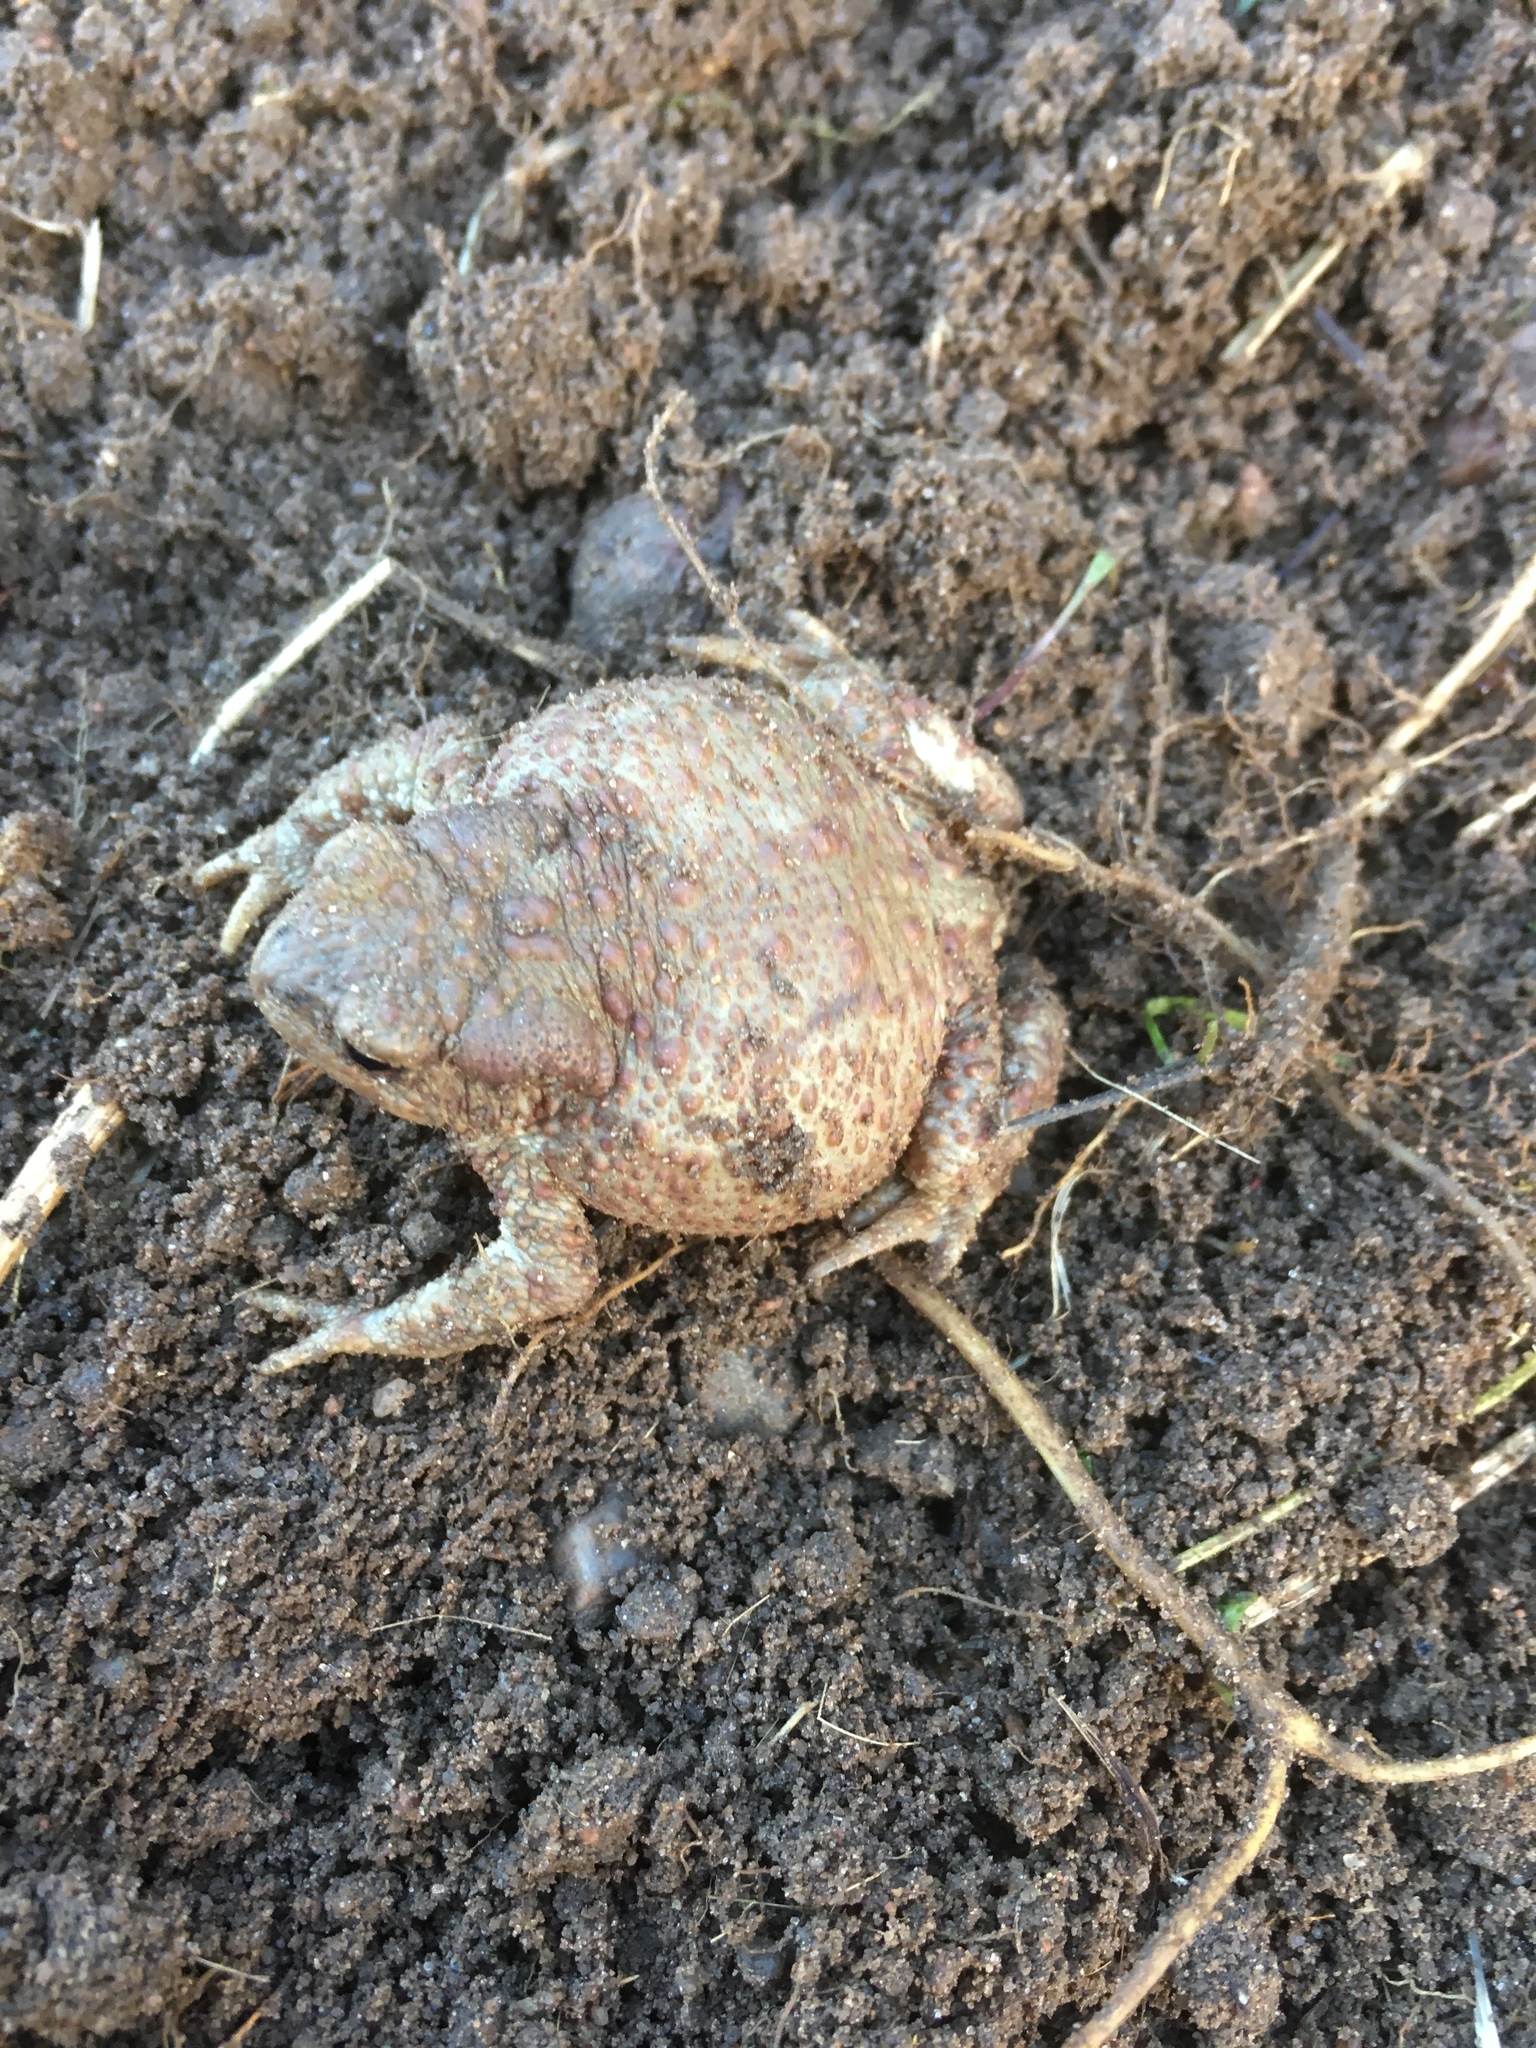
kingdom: Animalia
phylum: Chordata
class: Amphibia
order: Anura
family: Bufonidae
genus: Bufo
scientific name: Bufo bufo
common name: Common toad
